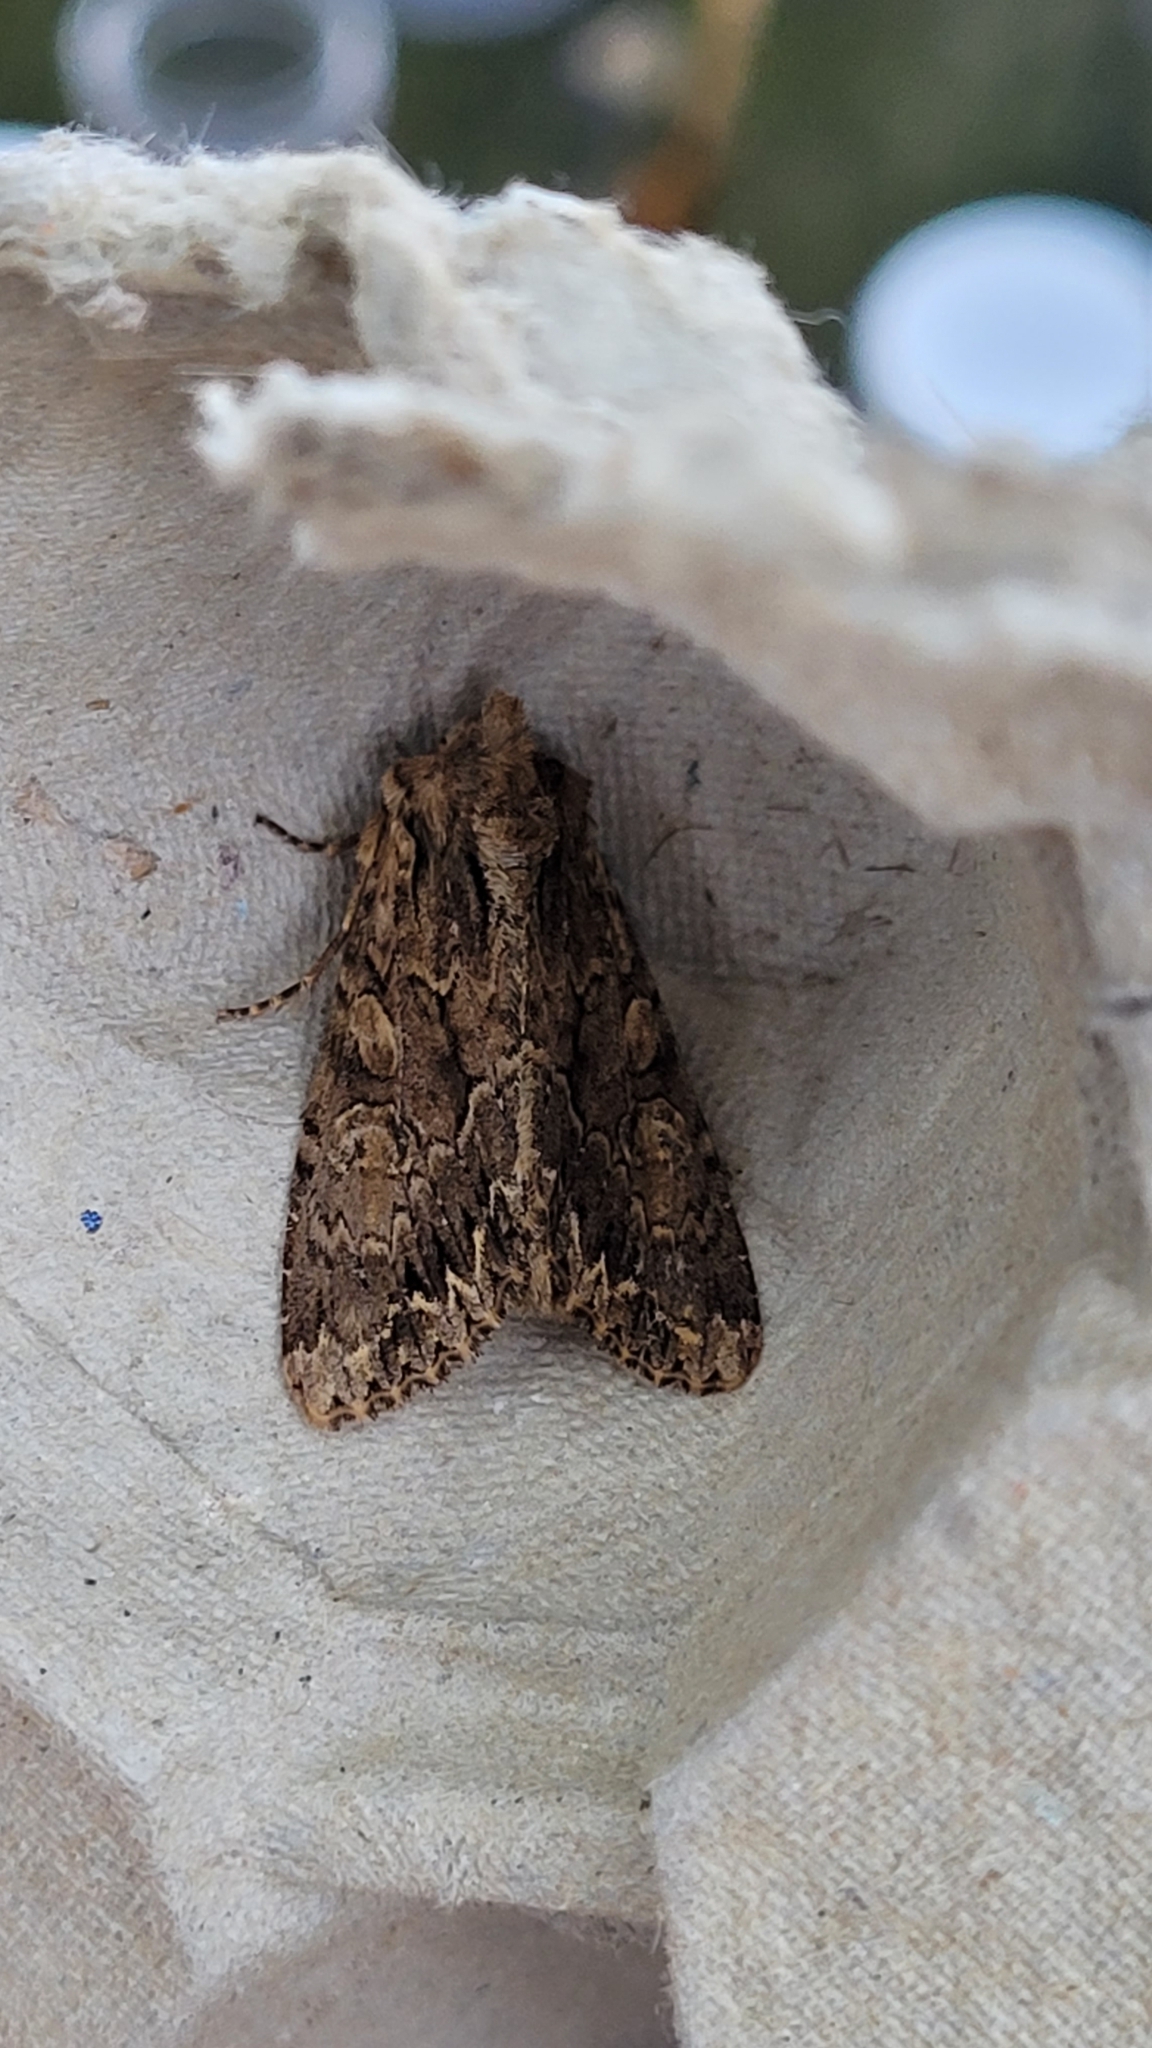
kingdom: Animalia
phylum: Arthropoda
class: Insecta
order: Lepidoptera
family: Noctuidae
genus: Apamea
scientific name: Apamea monoglypha
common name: Dark arches
